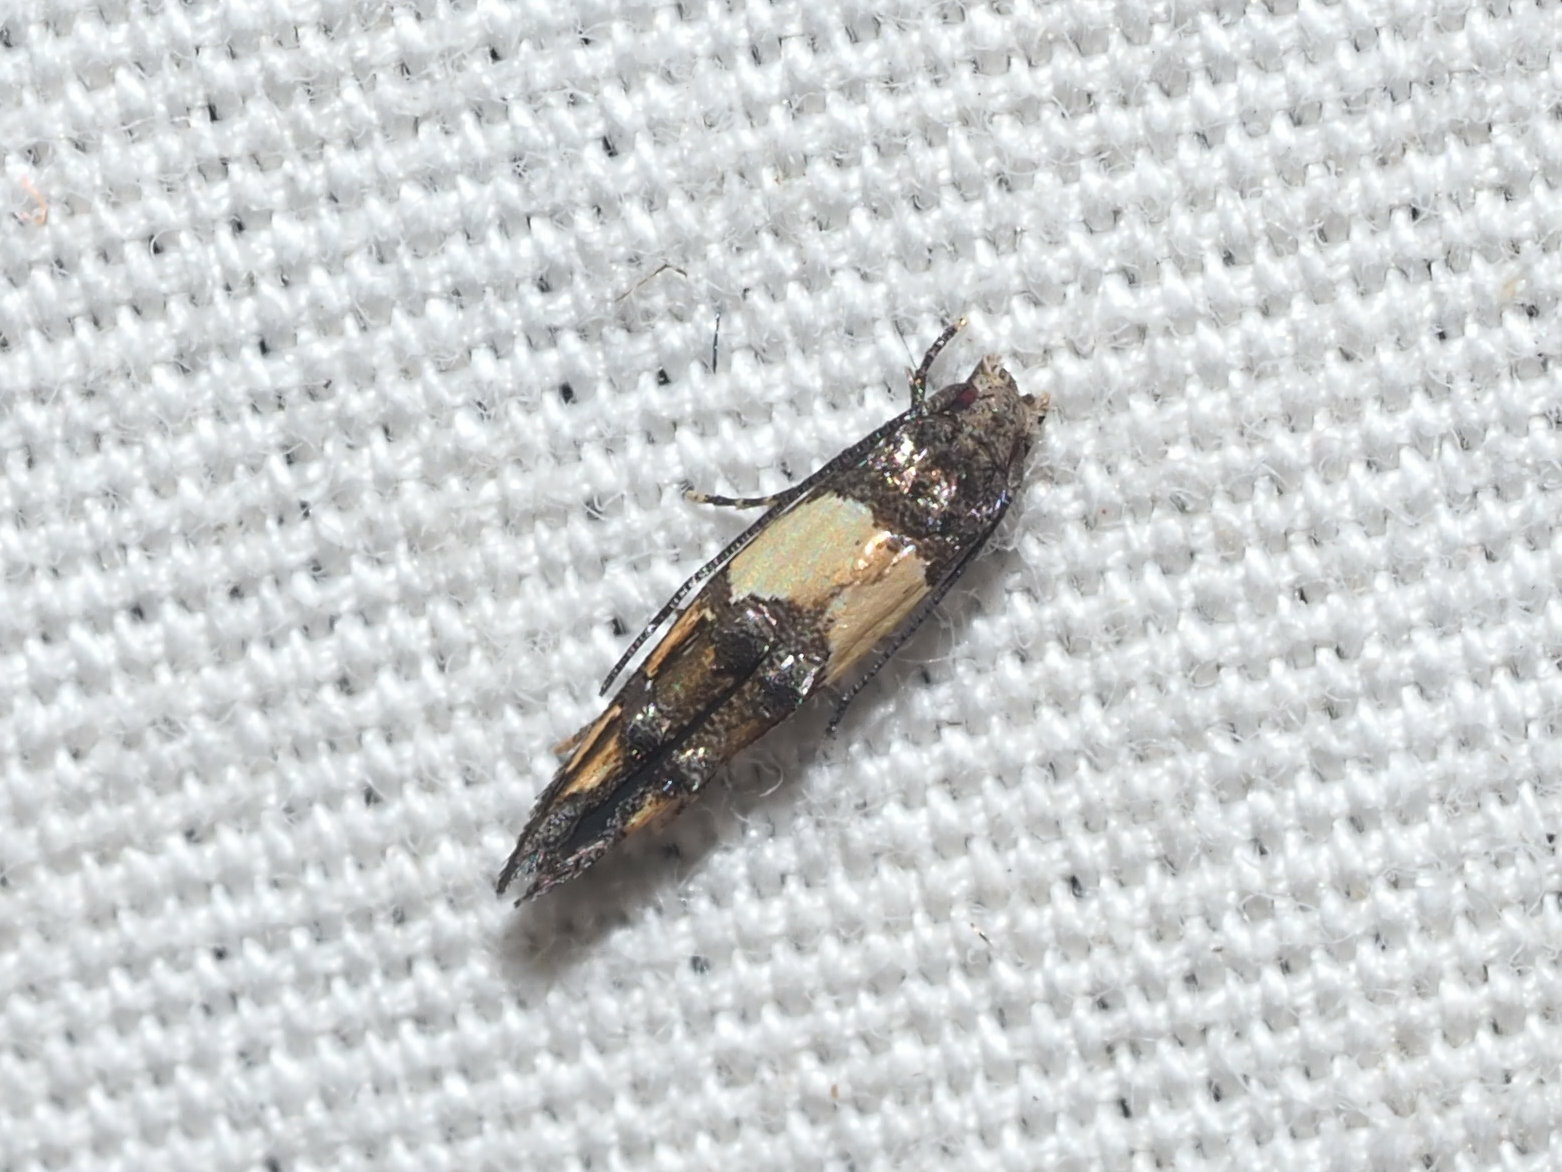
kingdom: Animalia
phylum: Arthropoda
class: Insecta
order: Lepidoptera
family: Momphidae
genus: Mompha
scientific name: Mompha trithalama
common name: Moth
